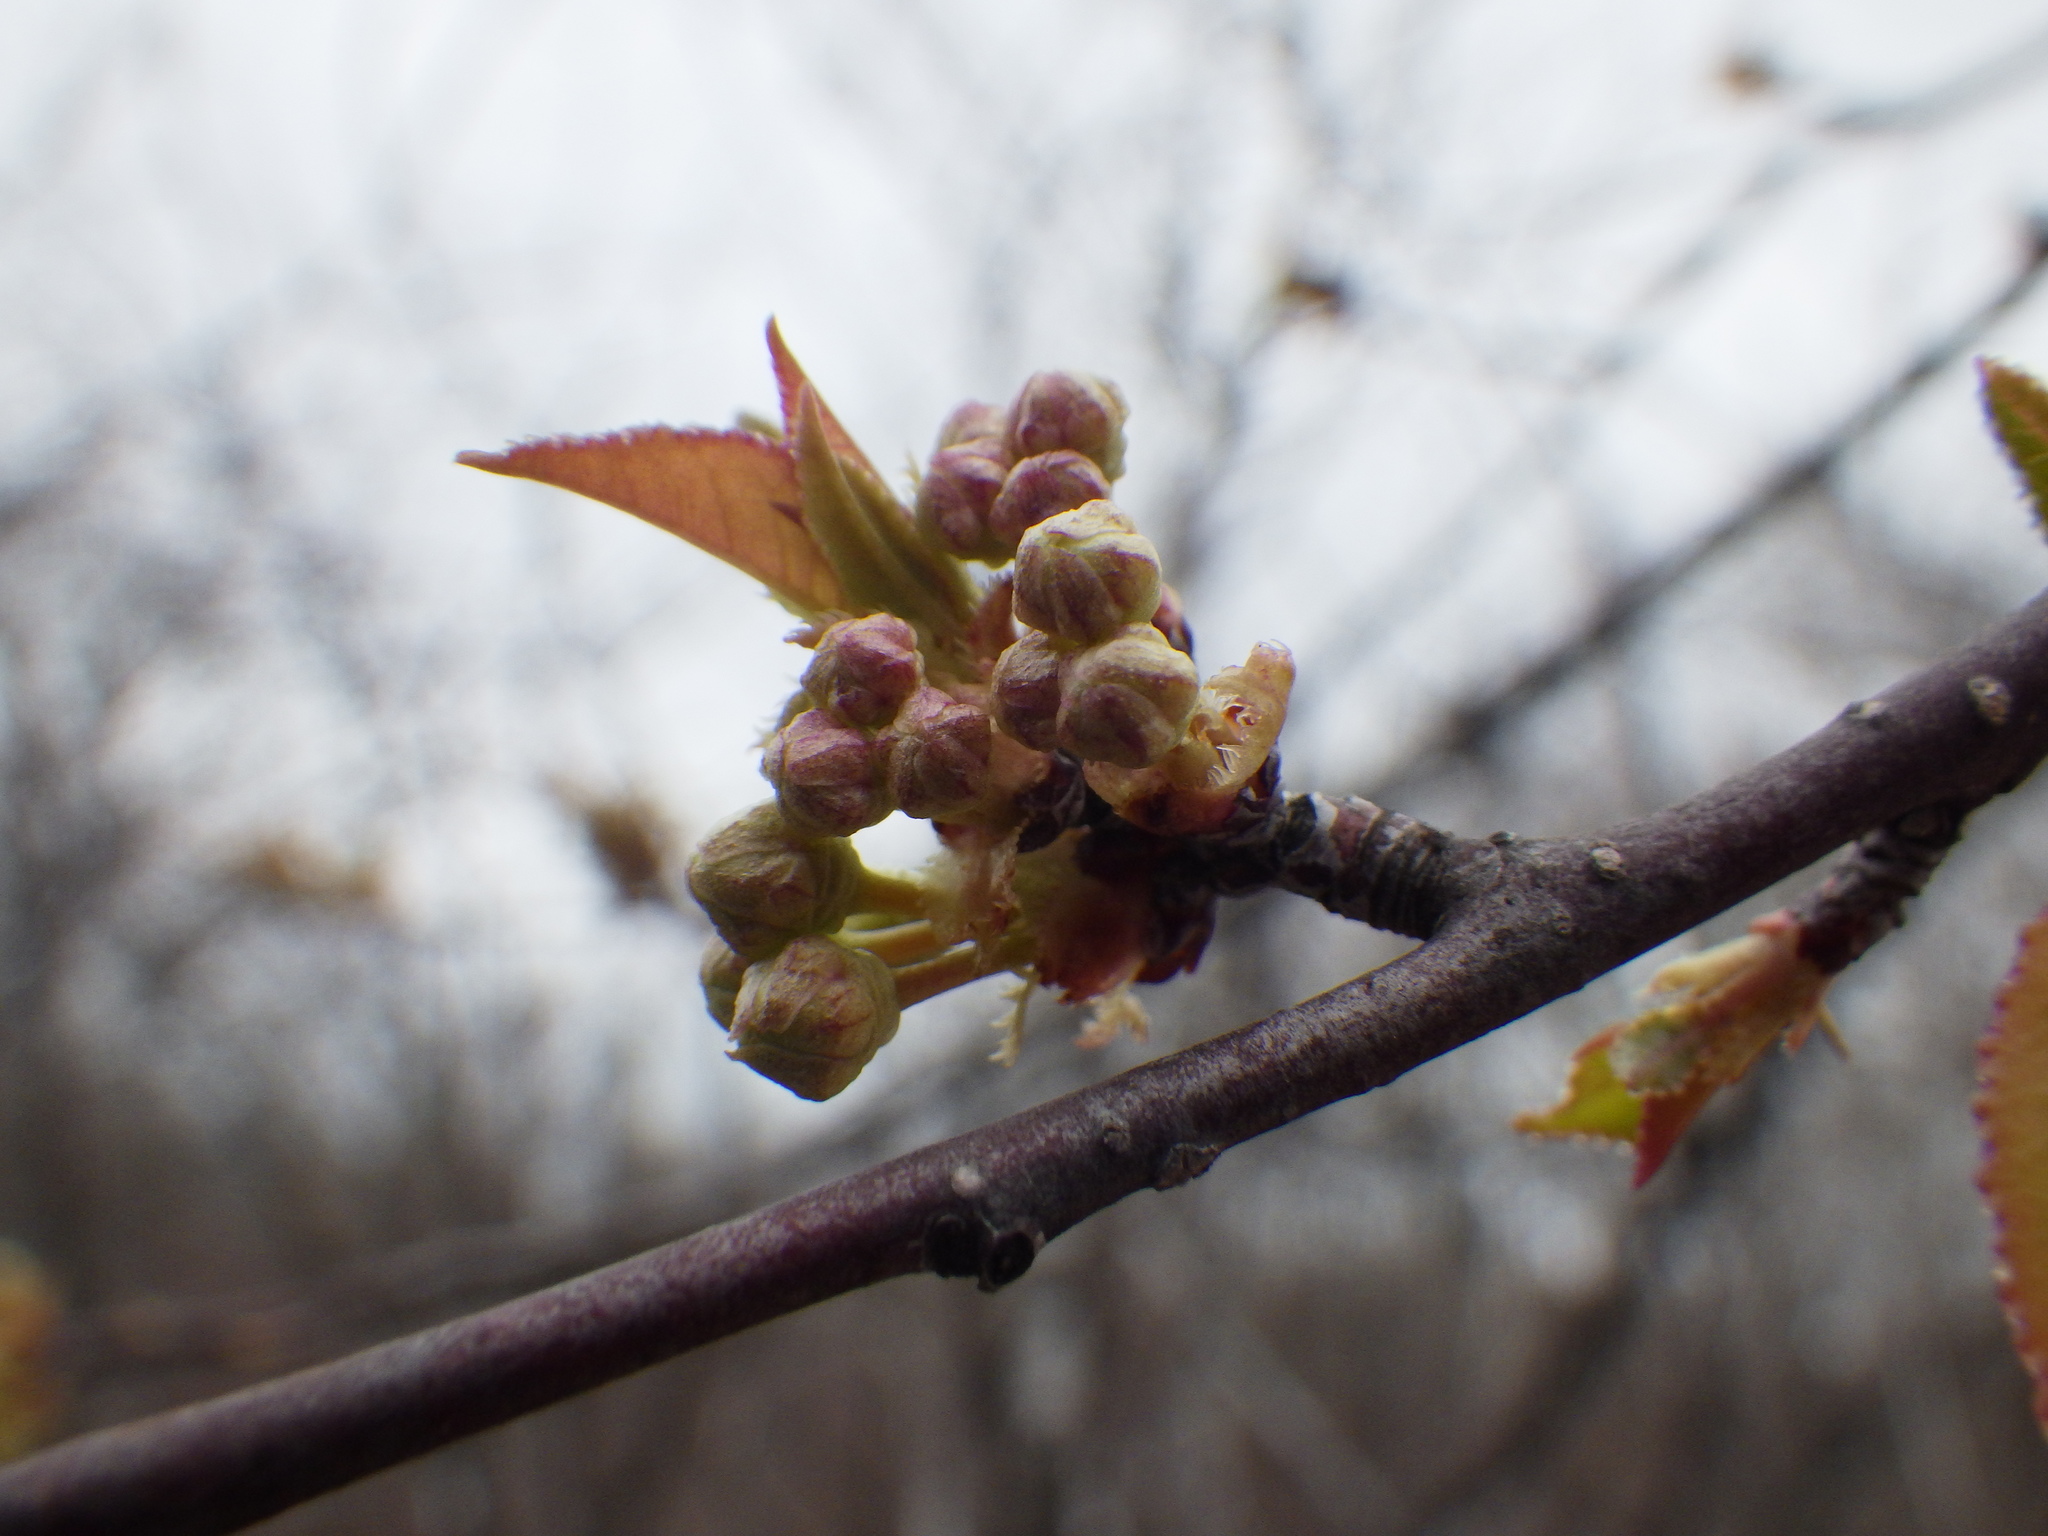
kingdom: Plantae
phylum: Tracheophyta
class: Magnoliopsida
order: Rosales
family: Rosaceae
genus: Prunus
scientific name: Prunus pensylvanica
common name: Pin cherry
